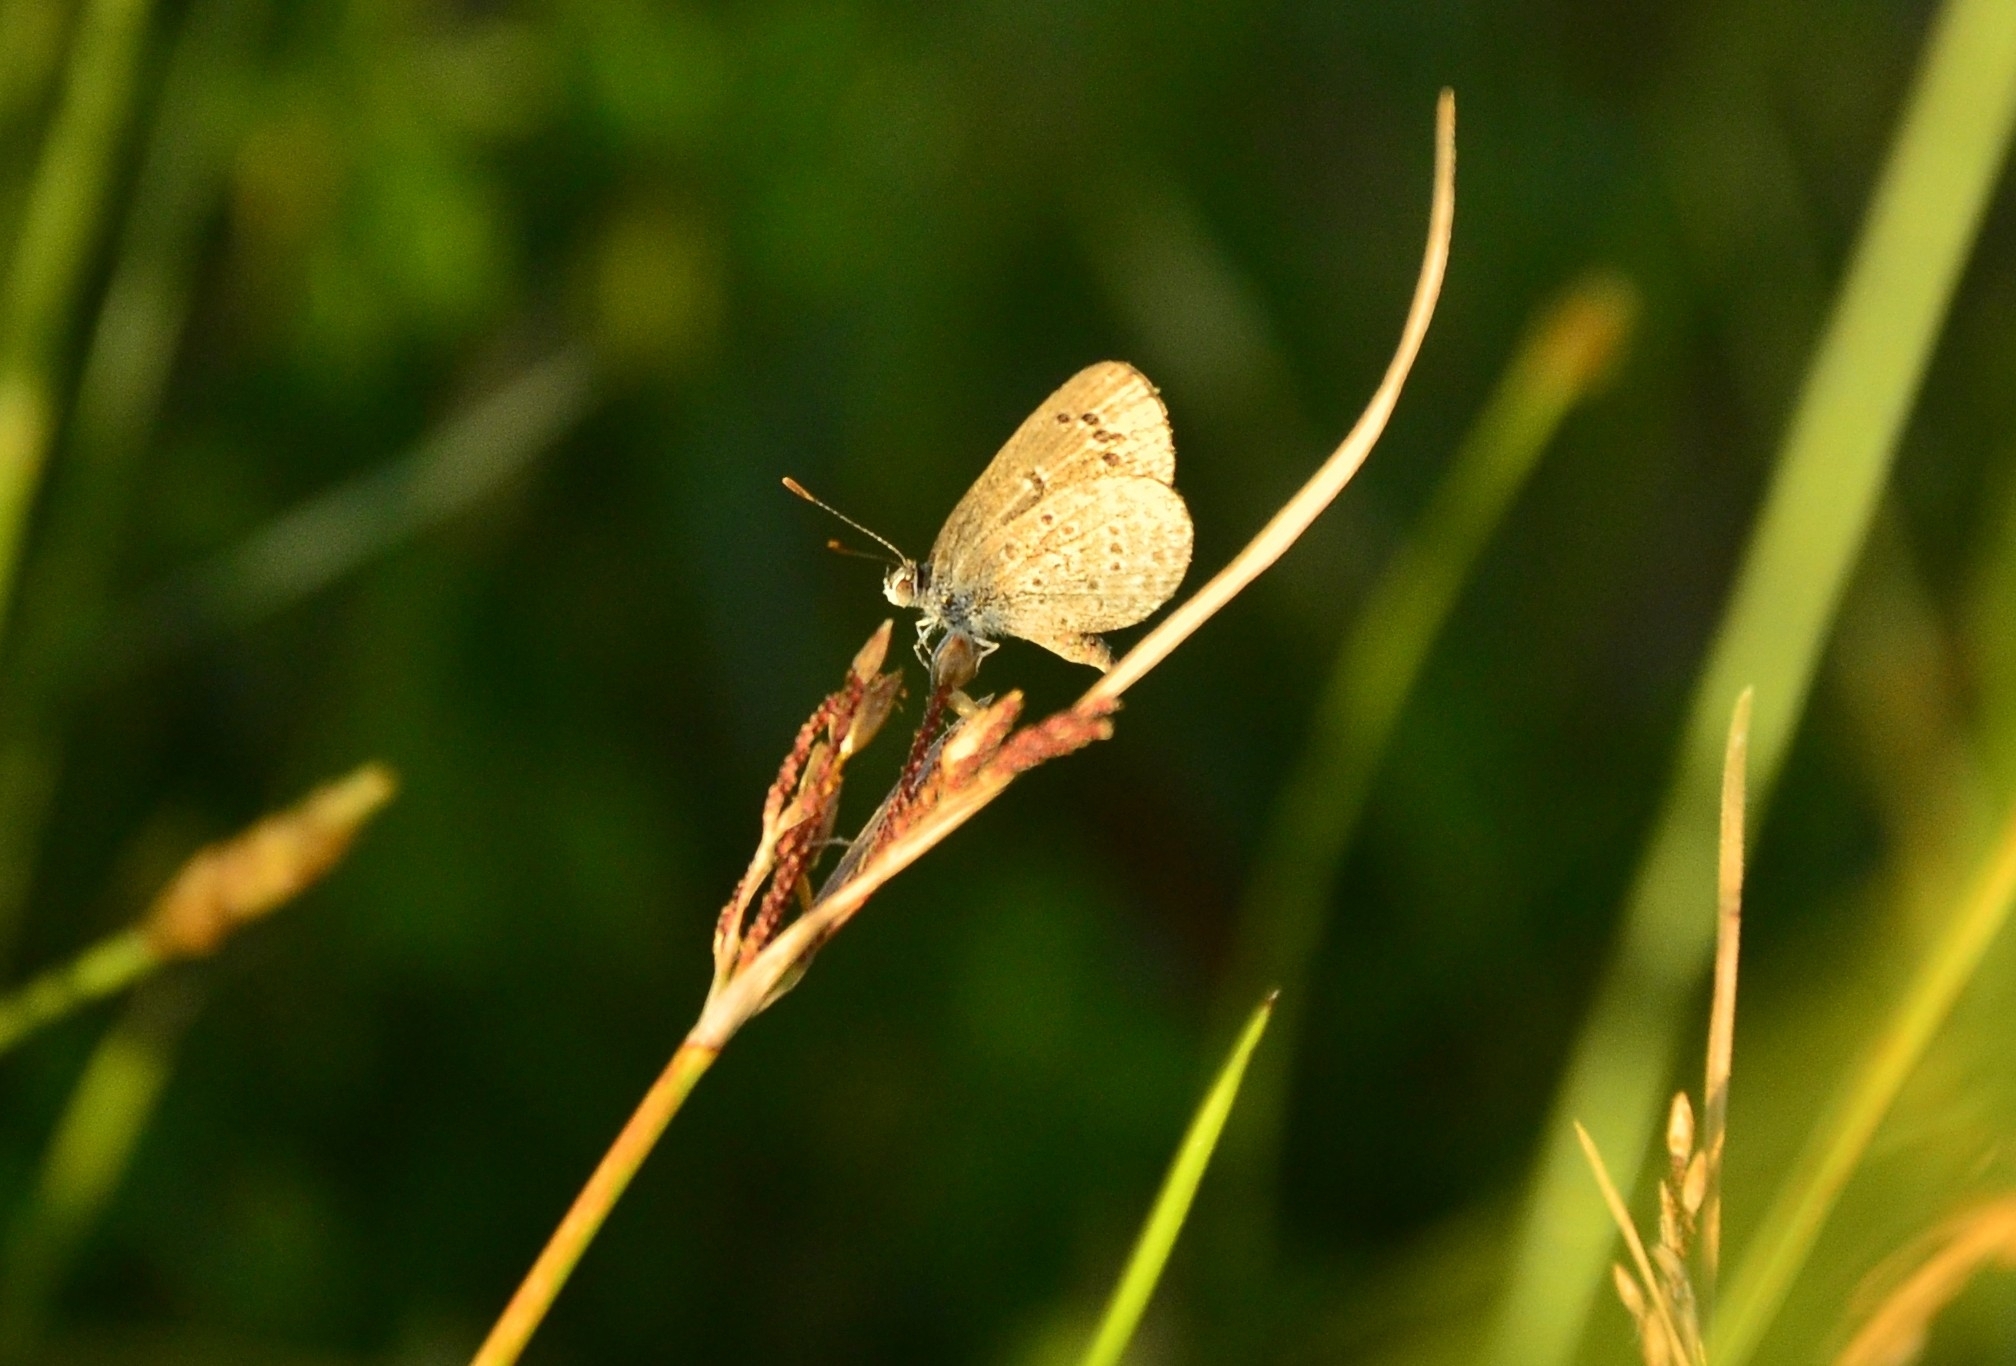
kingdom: Animalia
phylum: Arthropoda
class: Insecta
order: Lepidoptera
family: Lycaenidae
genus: Zizina
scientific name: Zizina otis
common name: Lesser grass blue
